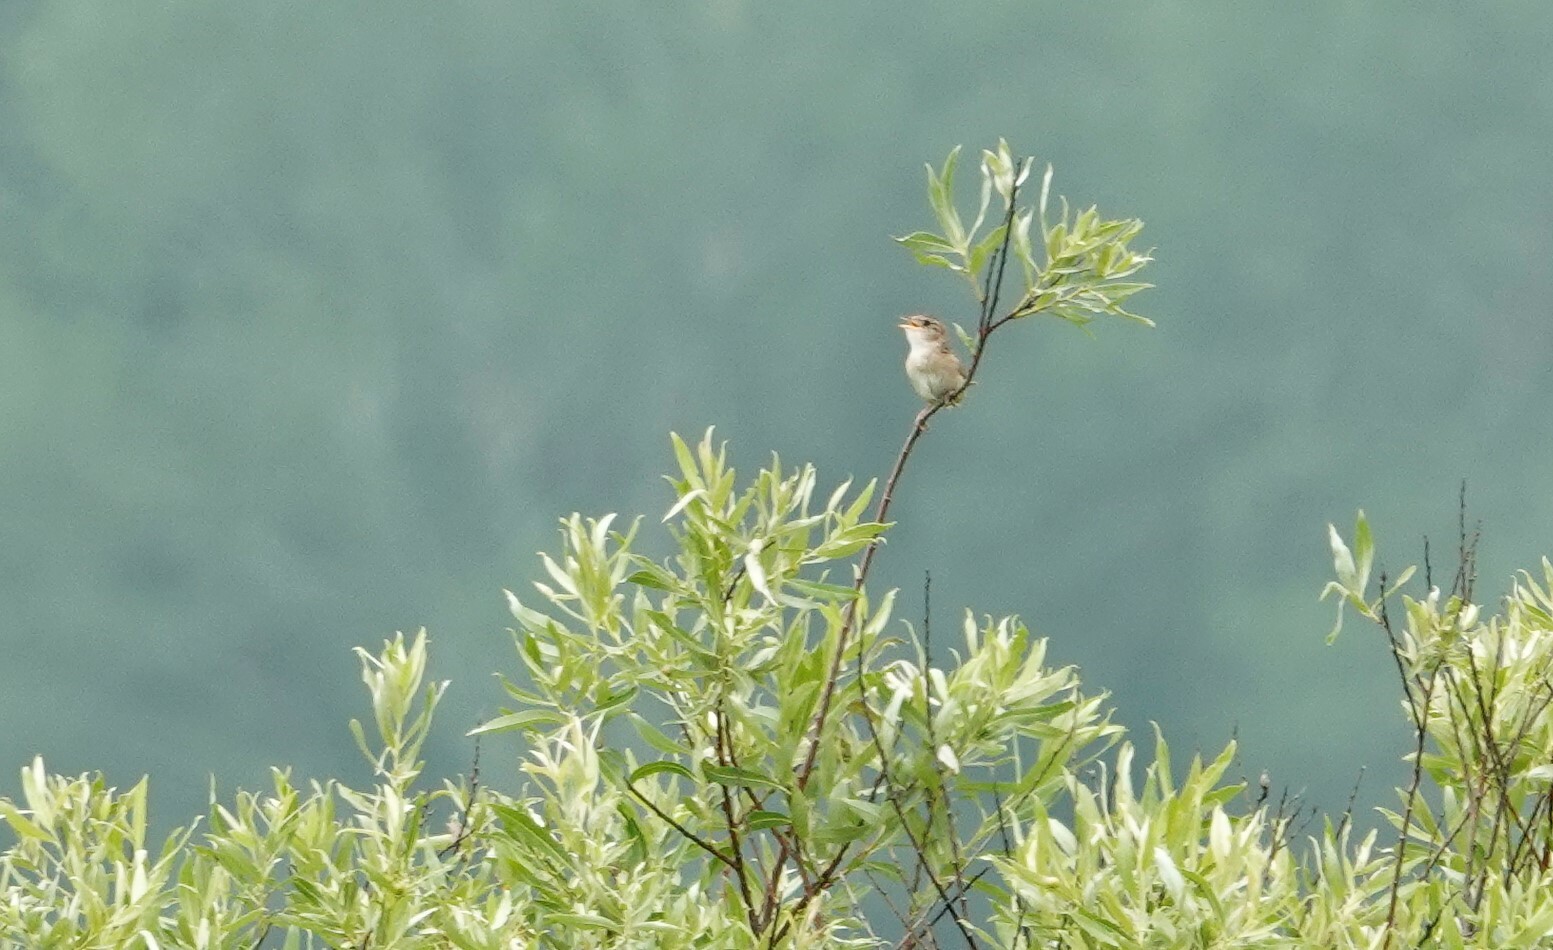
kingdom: Animalia
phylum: Chordata
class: Aves
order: Passeriformes
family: Troglodytidae
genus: Cistothorus
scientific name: Cistothorus platensis
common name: Sedge wren
